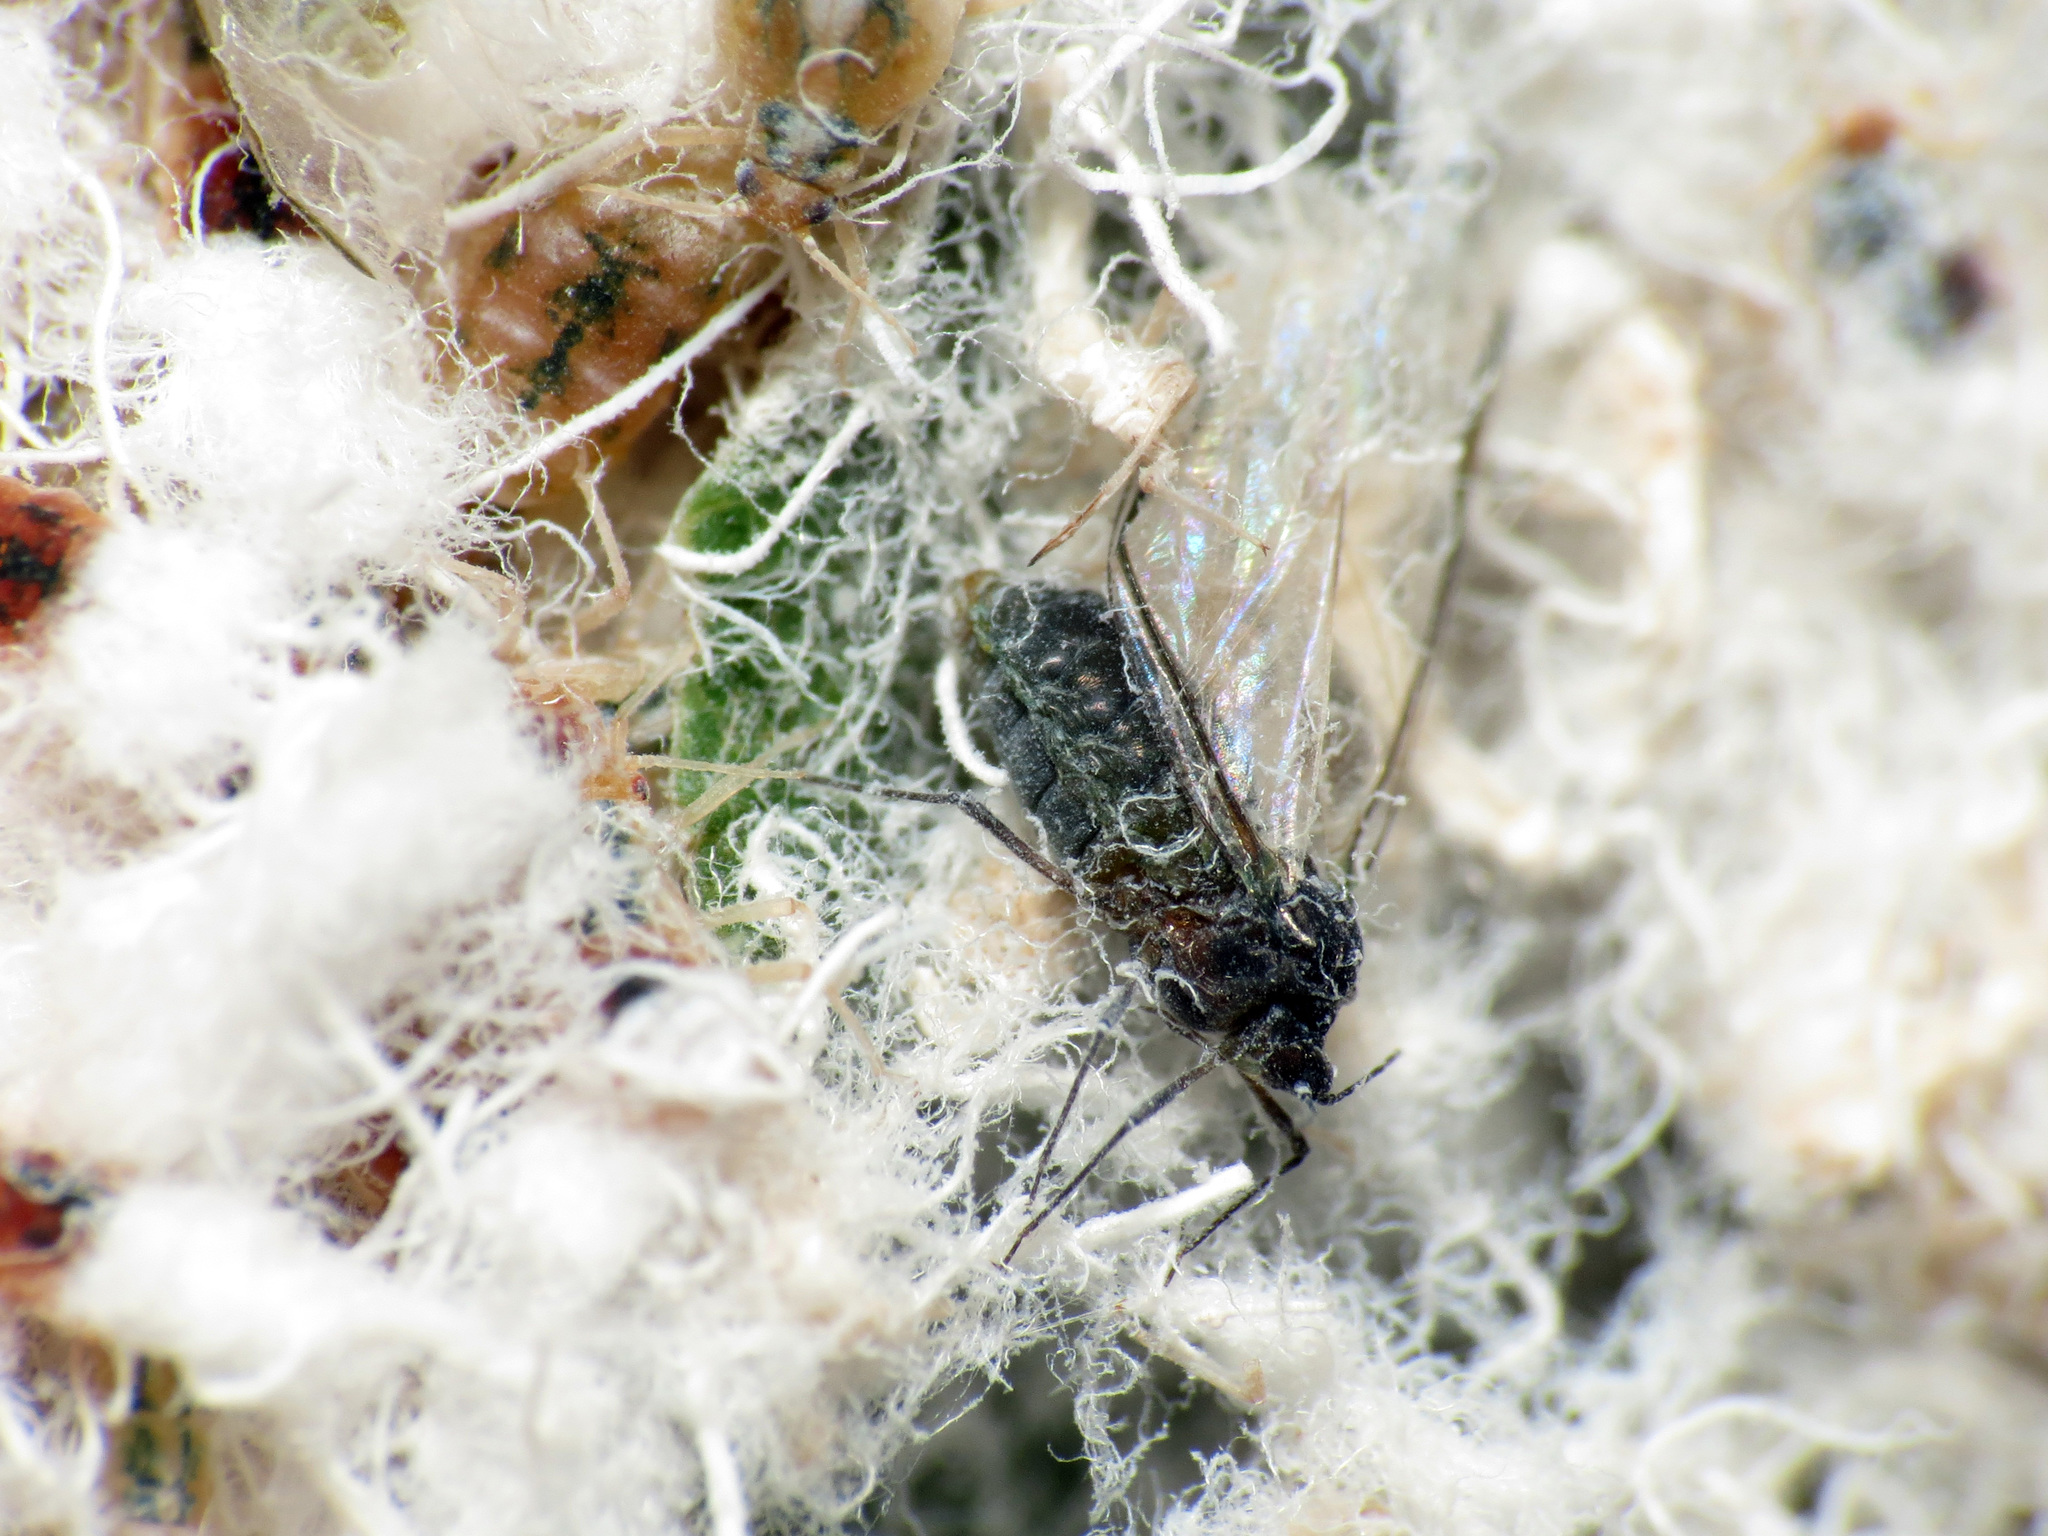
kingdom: Animalia
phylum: Arthropoda
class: Insecta
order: Hemiptera
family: Aphididae
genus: Grylloprociphilus
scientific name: Grylloprociphilus imbricator
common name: Beech blight aphid
